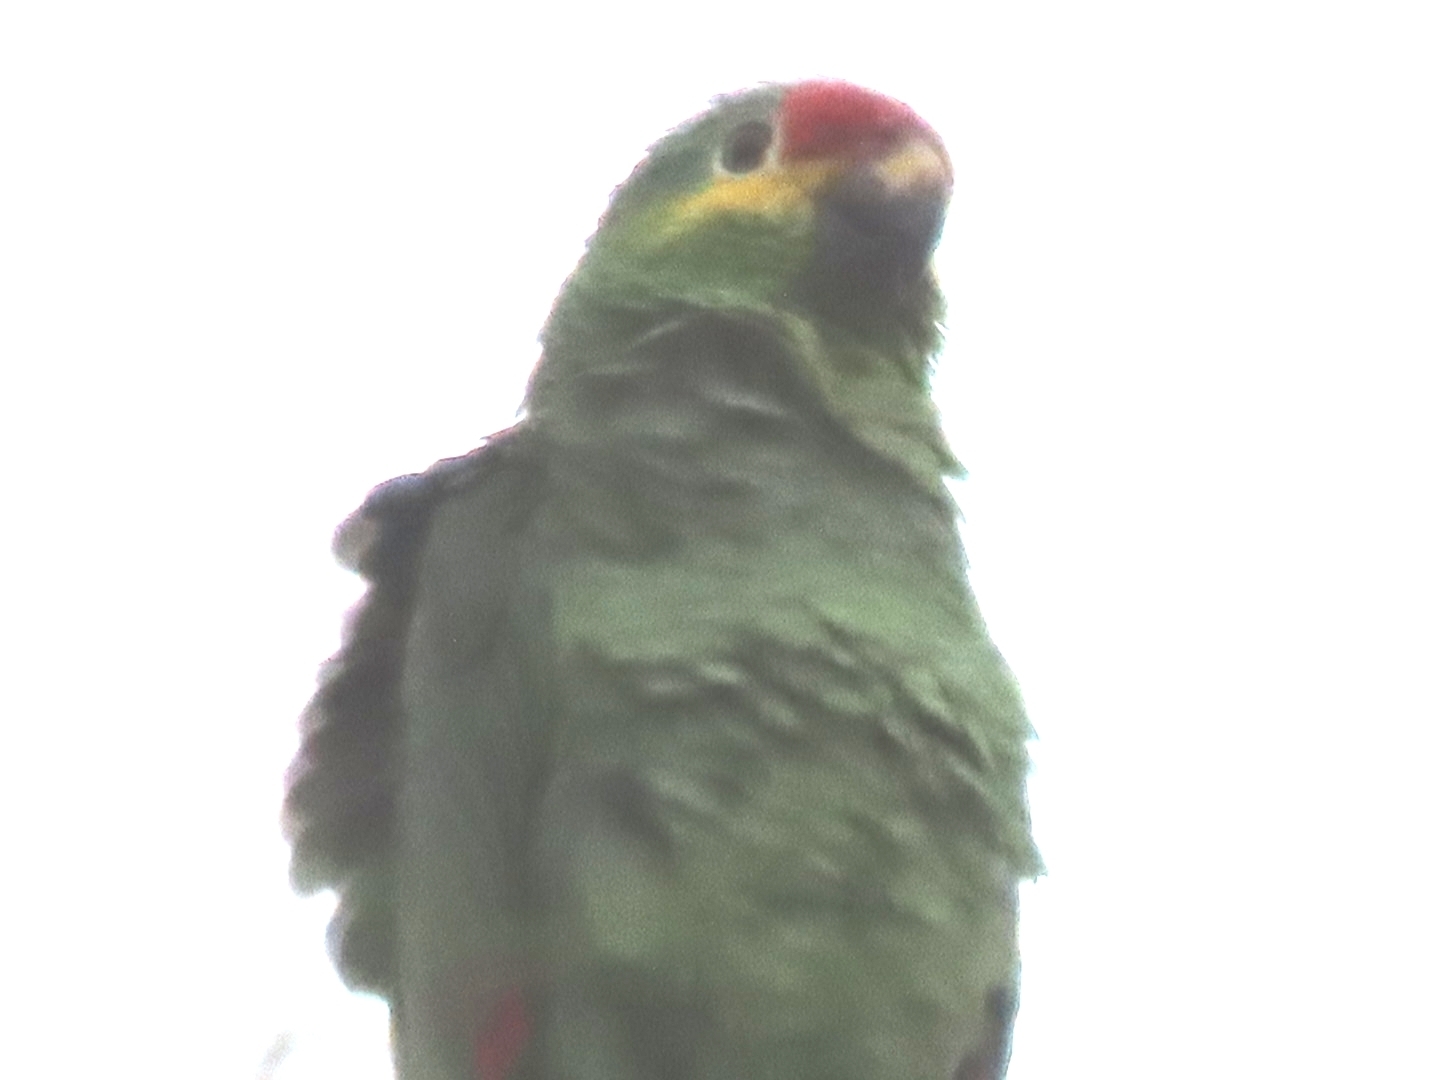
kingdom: Animalia
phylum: Chordata
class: Aves
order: Psittaciformes
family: Psittacidae
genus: Amazona
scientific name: Amazona autumnalis
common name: Red-lored amazon
